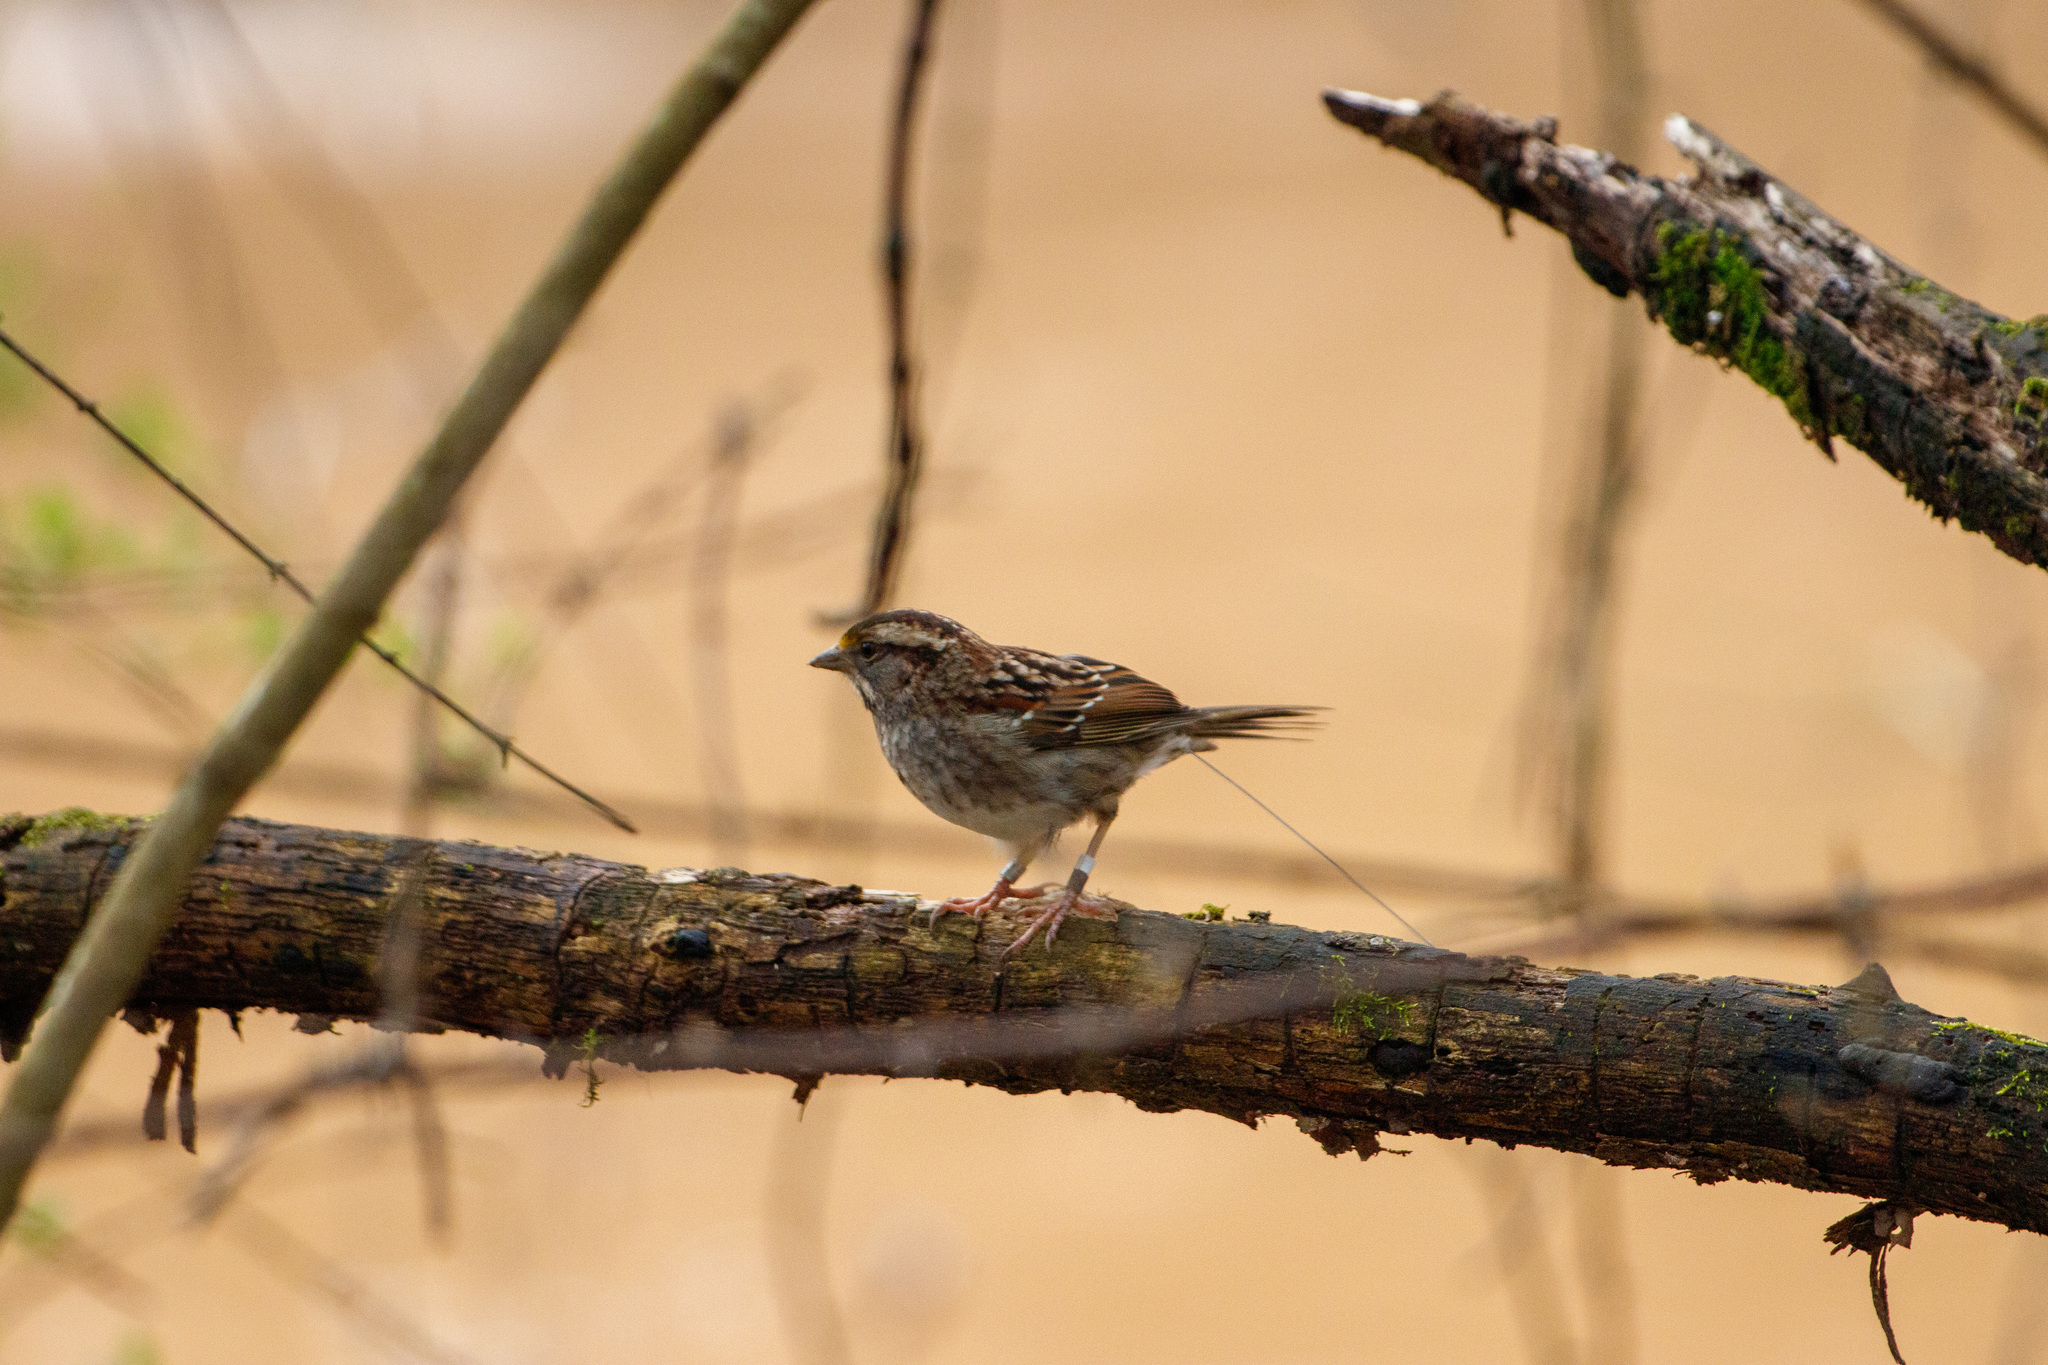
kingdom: Animalia
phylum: Chordata
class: Aves
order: Passeriformes
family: Passerellidae
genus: Zonotrichia
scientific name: Zonotrichia albicollis
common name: White-throated sparrow
